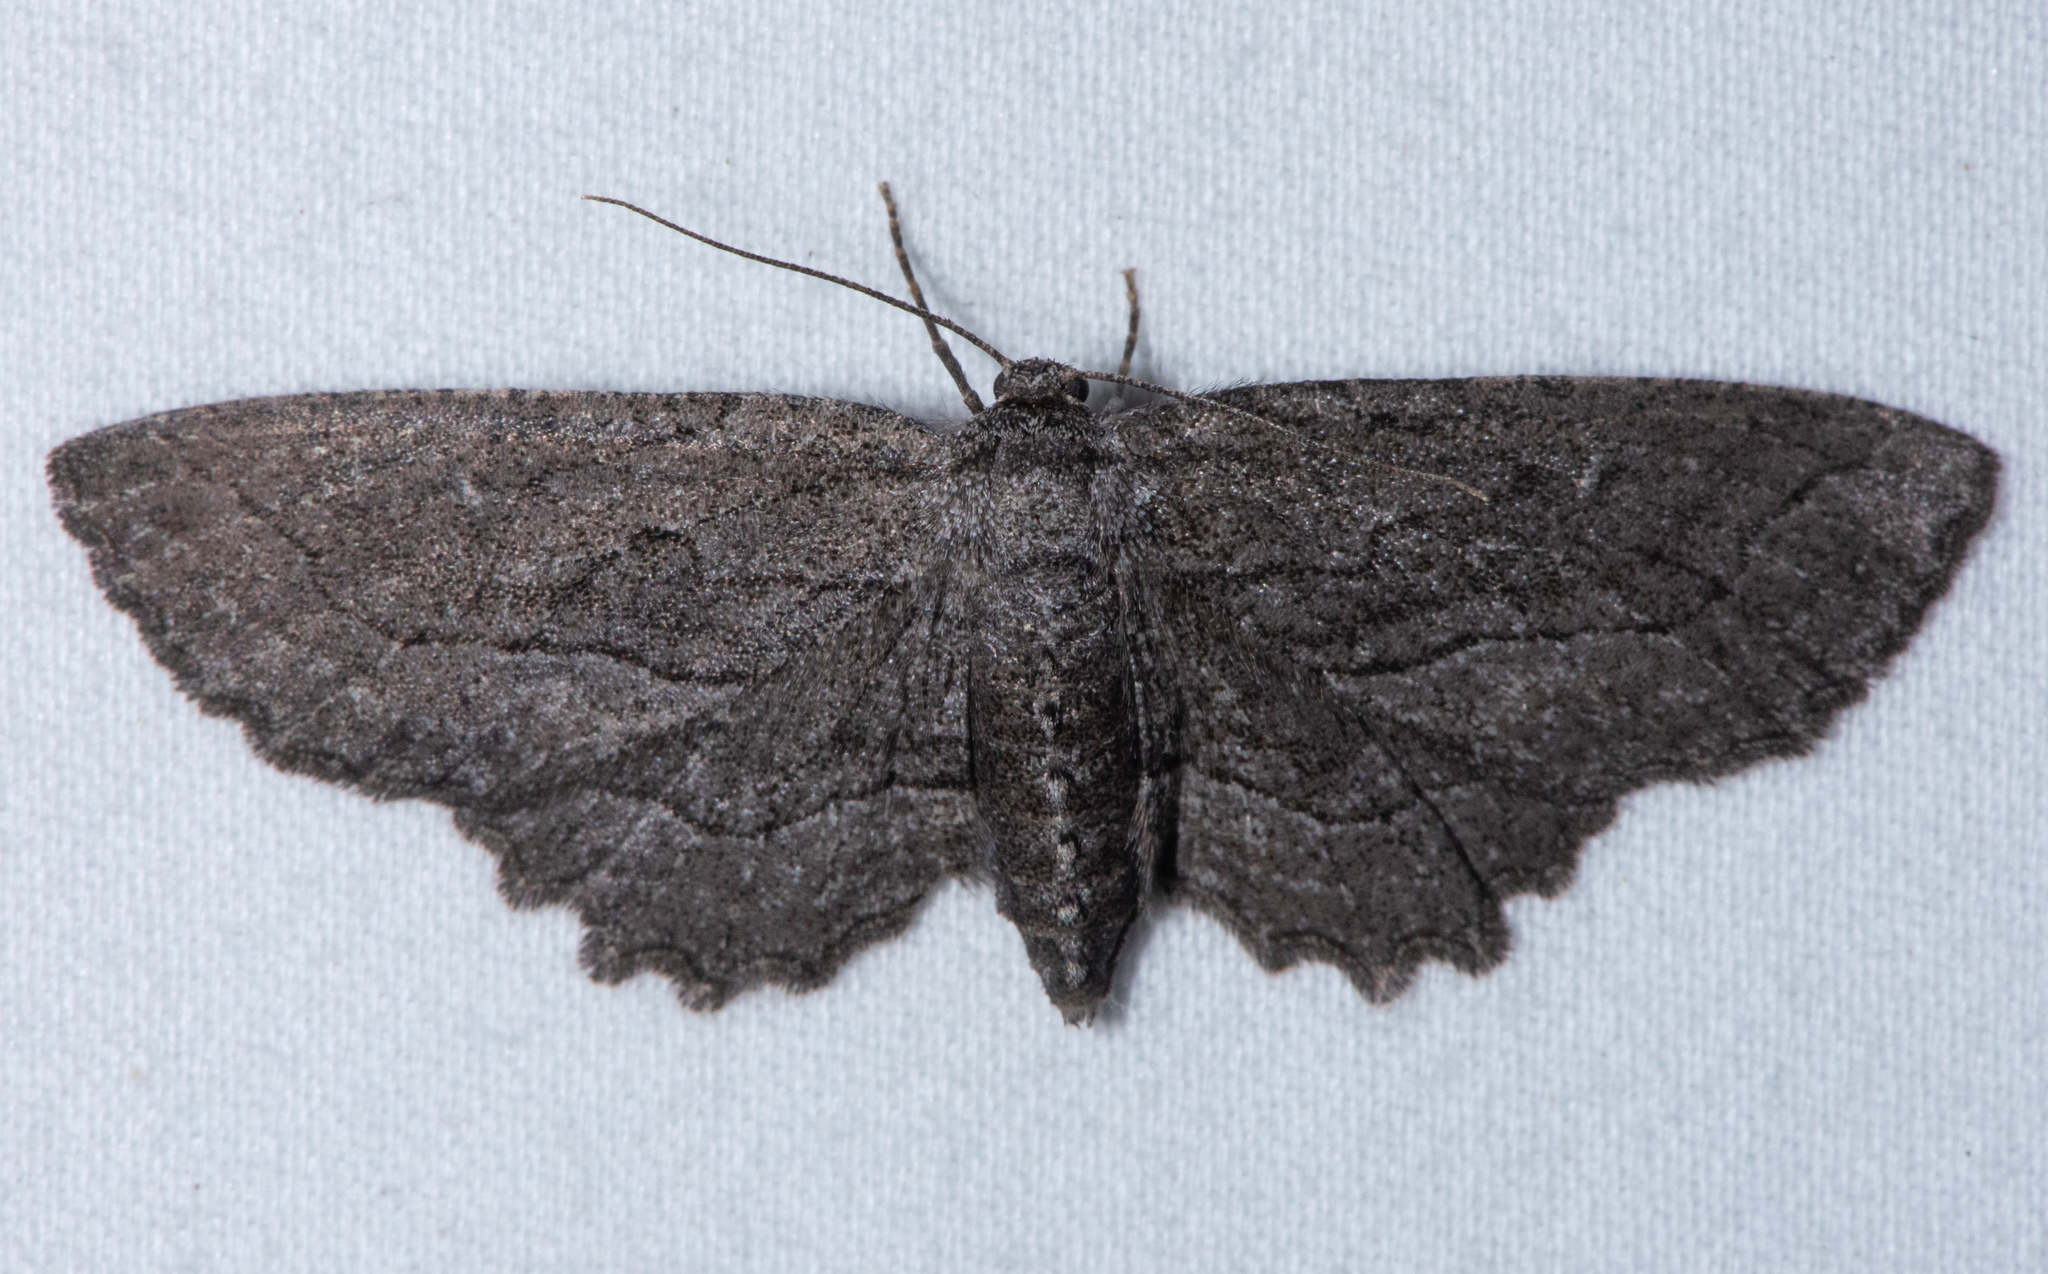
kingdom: Animalia
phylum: Arthropoda
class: Insecta
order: Lepidoptera
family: Geometridae
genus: Aethaloida
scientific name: Aethaloida packardaria
